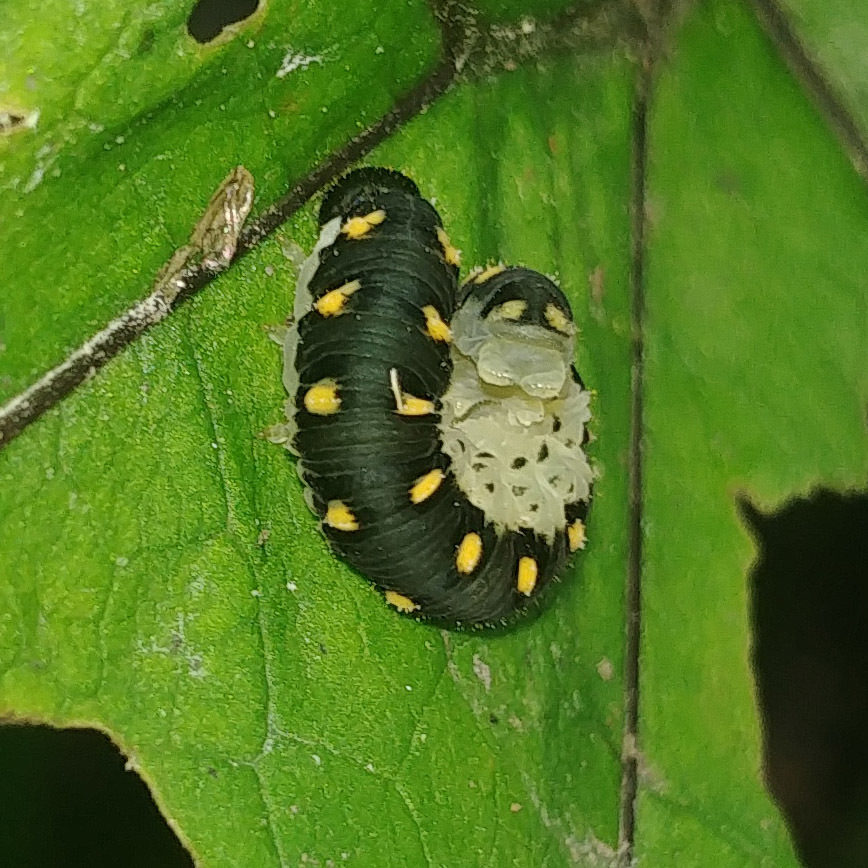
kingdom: Animalia
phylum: Arthropoda
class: Insecta
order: Hymenoptera
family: Tenthredinidae
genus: Tenthredo
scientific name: Tenthredo mandibularis
